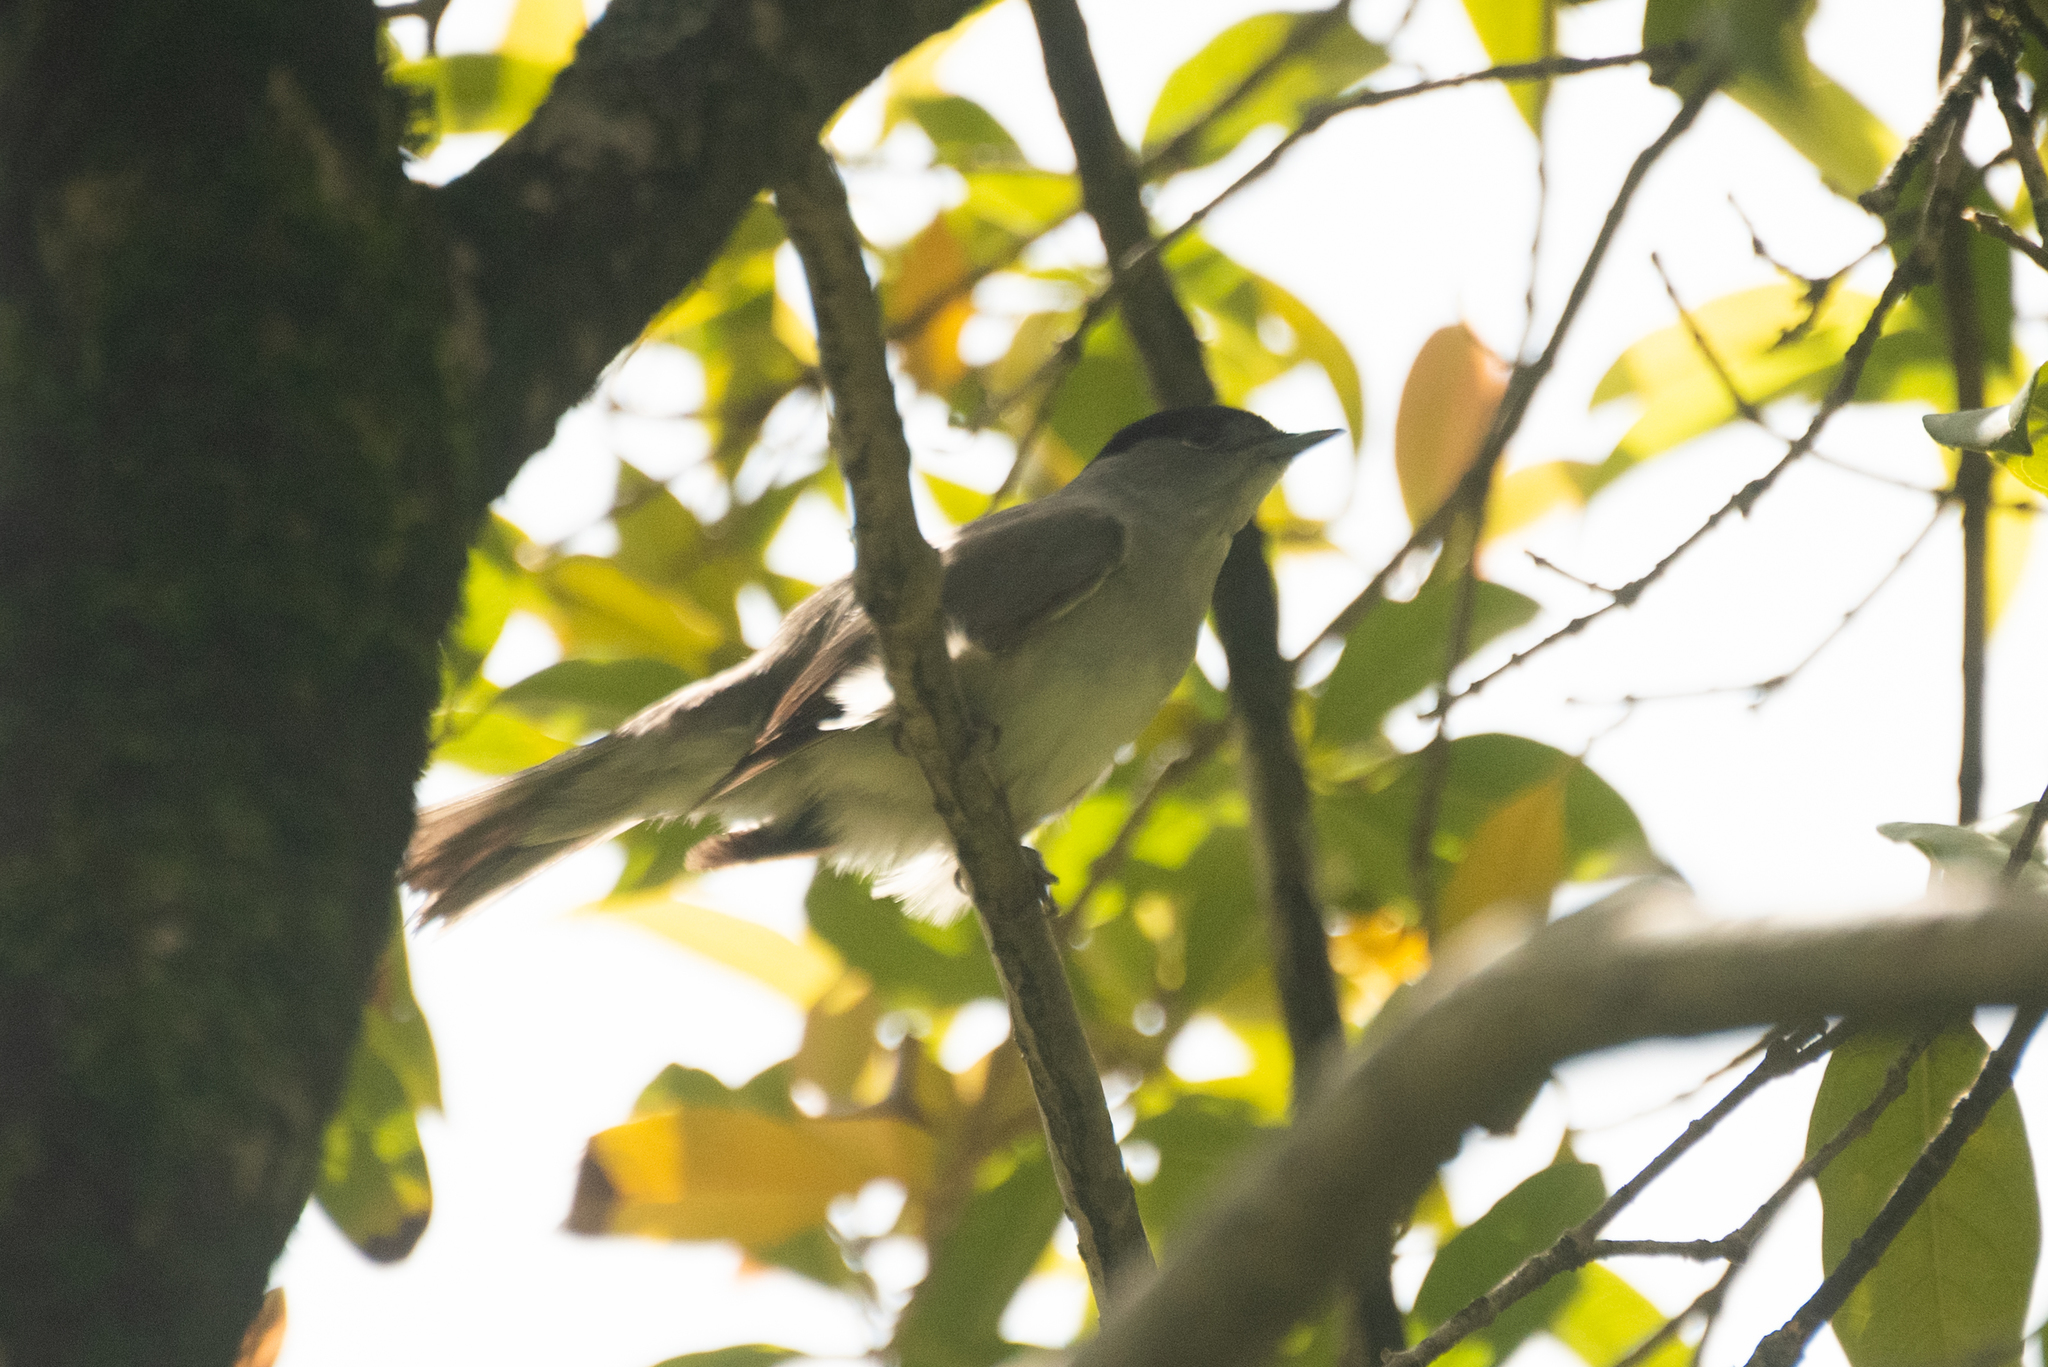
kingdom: Animalia
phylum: Chordata
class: Aves
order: Passeriformes
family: Sylviidae
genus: Sylvia
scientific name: Sylvia atricapilla
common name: Eurasian blackcap
